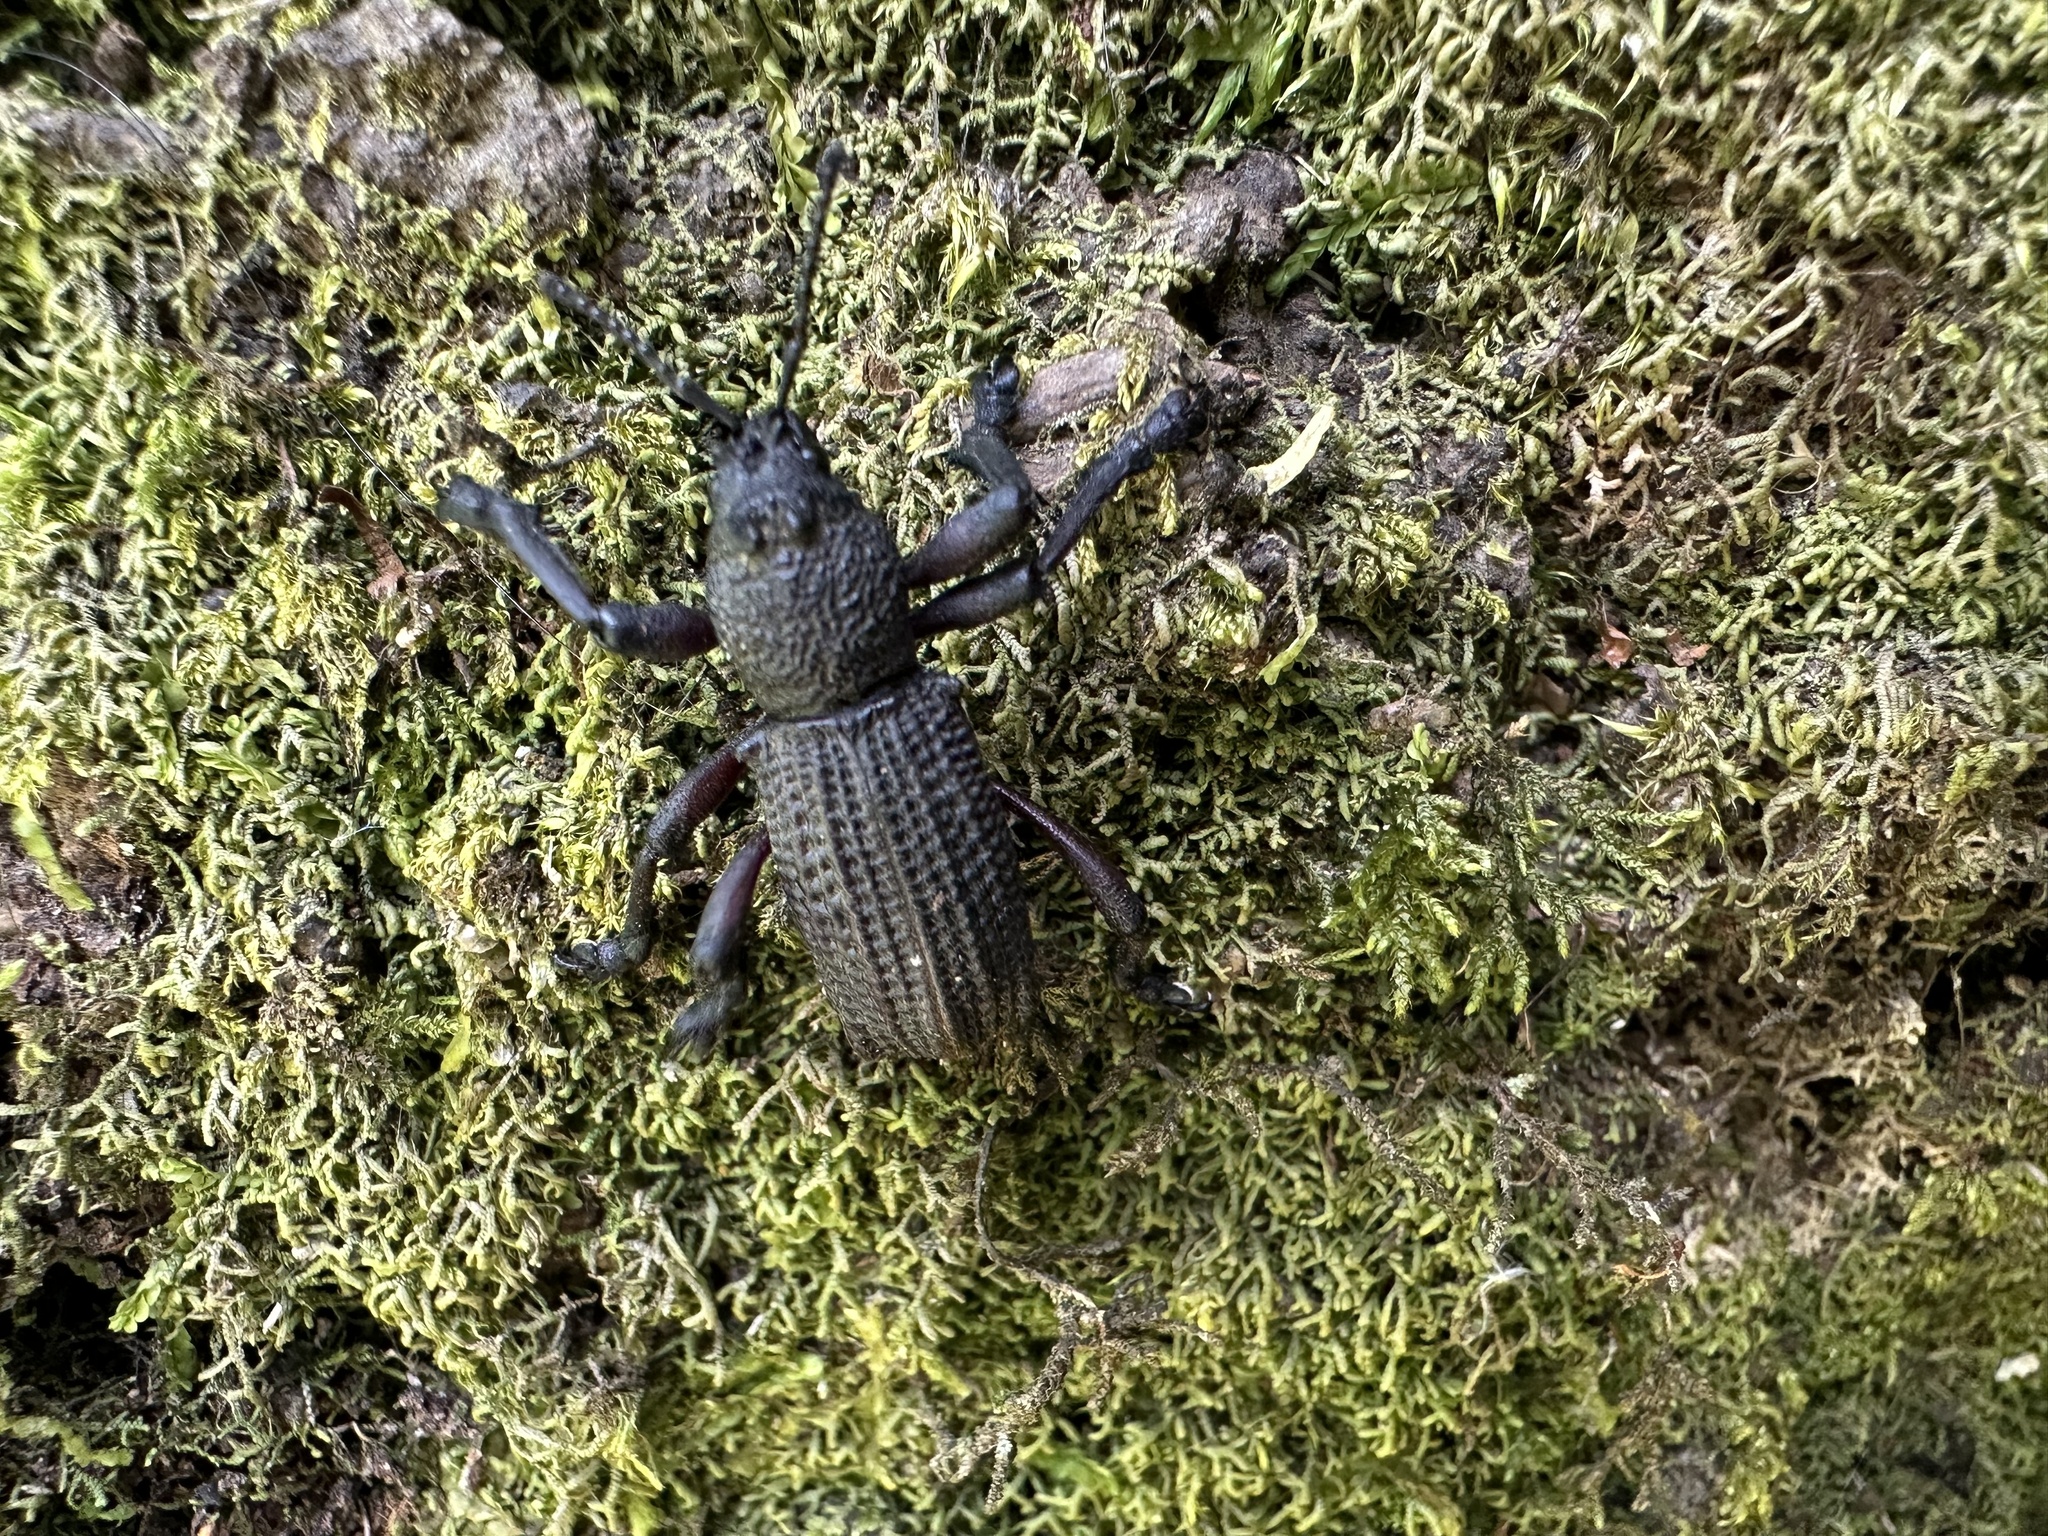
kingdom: Animalia
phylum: Arthropoda
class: Insecta
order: Coleoptera
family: Curculionidae
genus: Aegorhinus
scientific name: Aegorhinus
